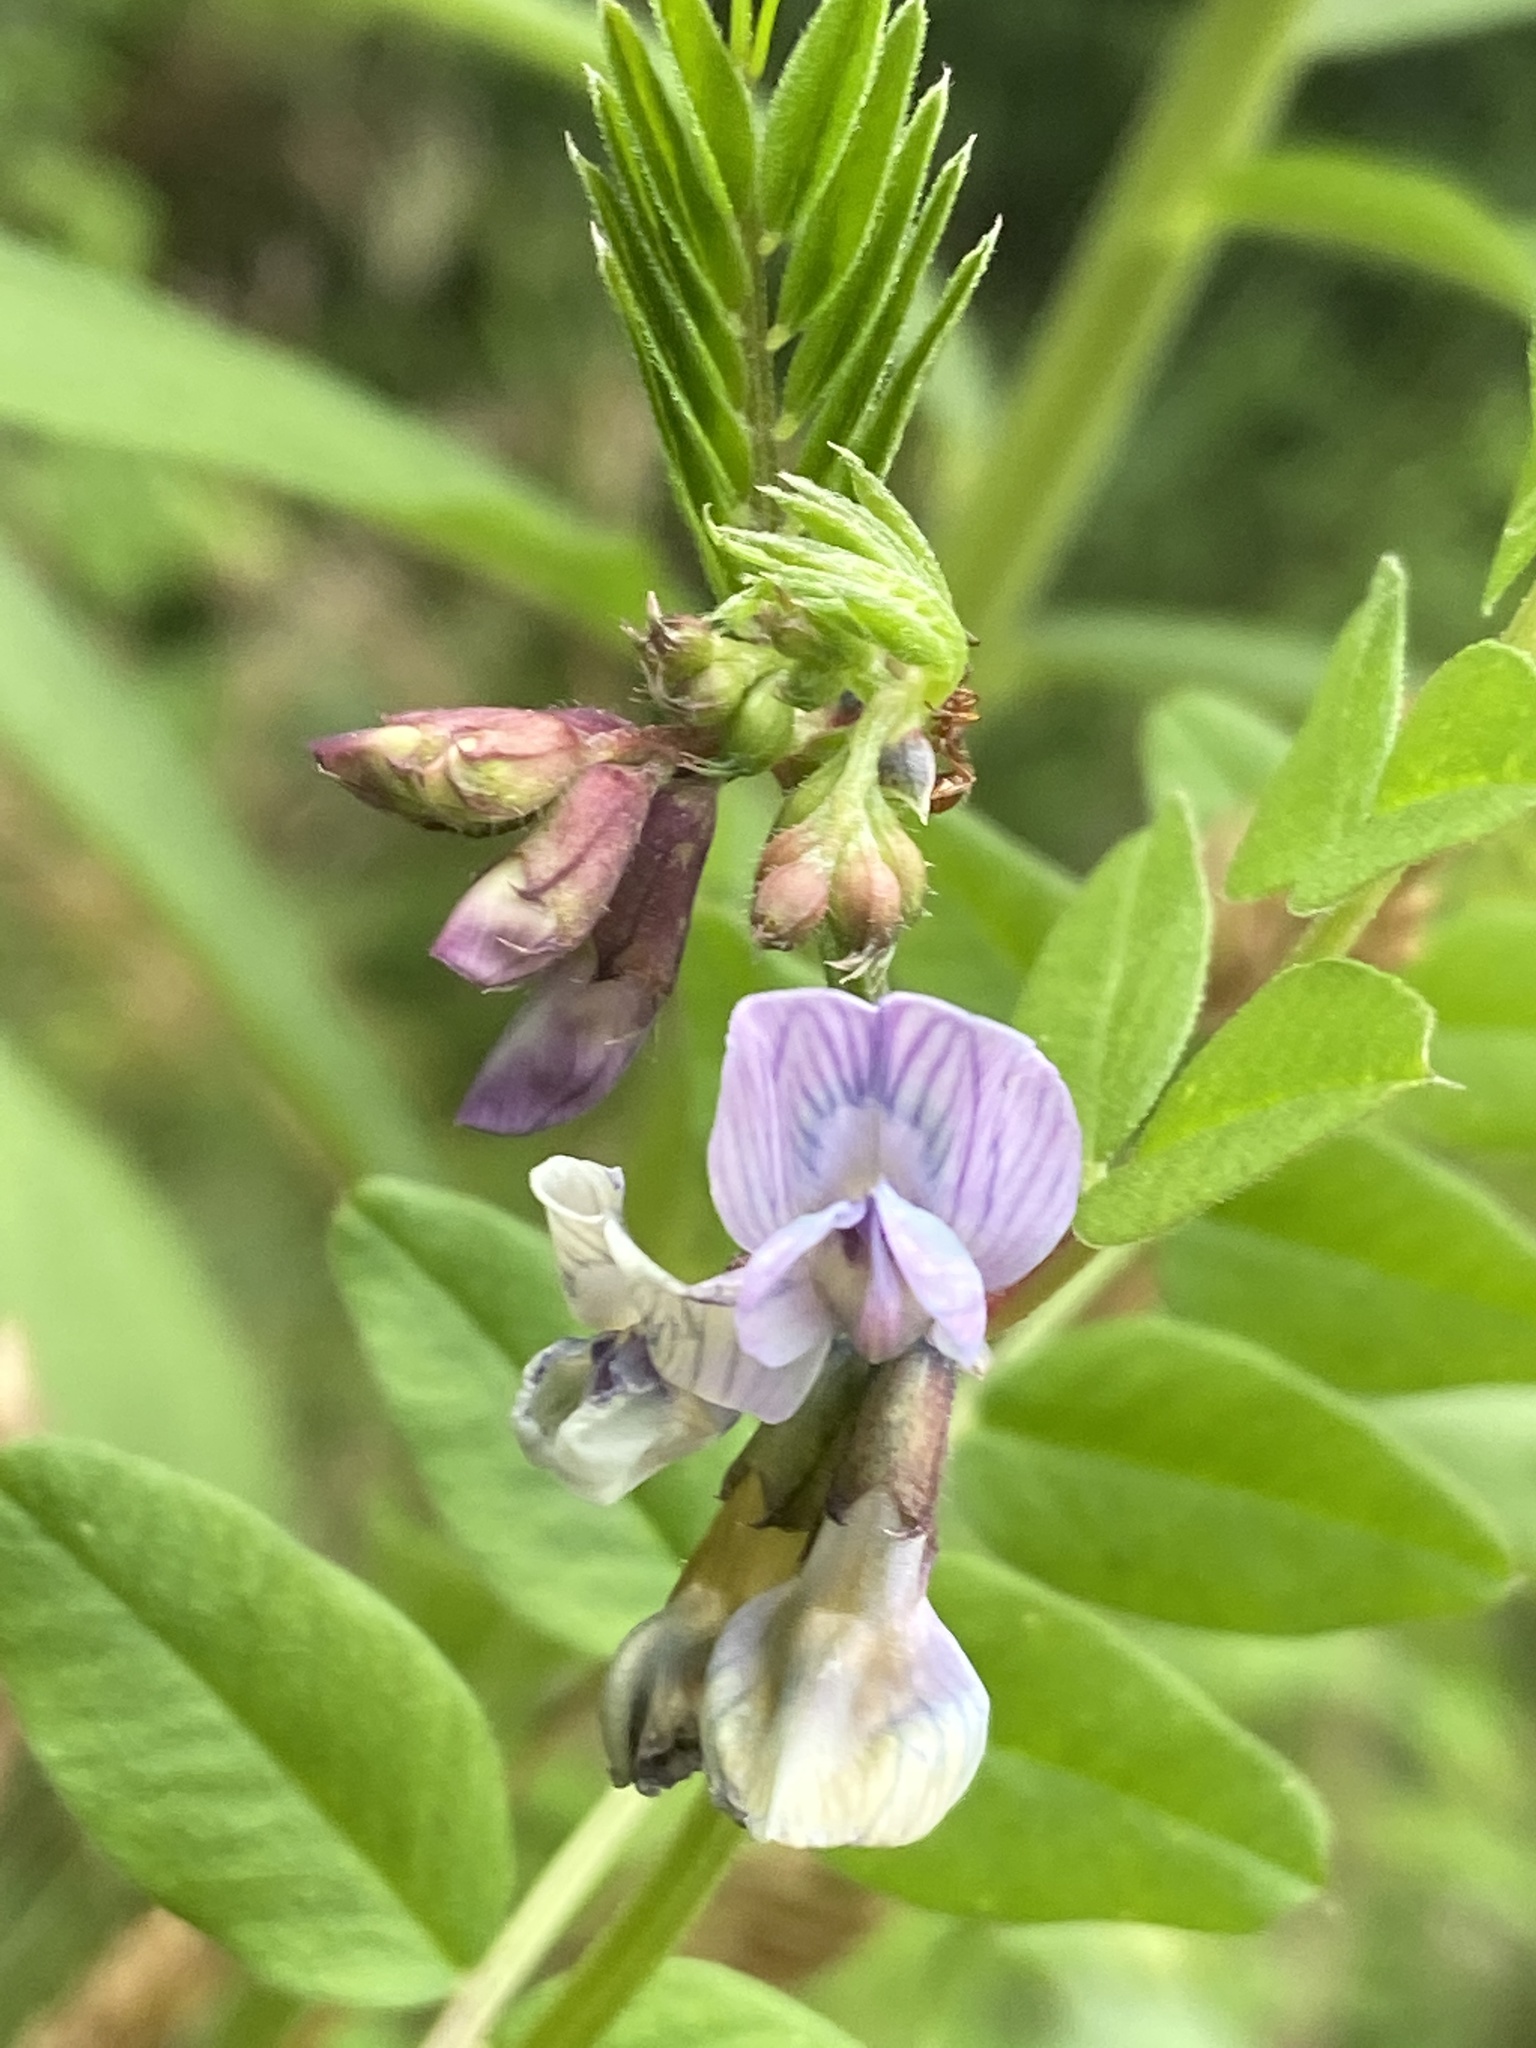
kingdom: Plantae
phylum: Tracheophyta
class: Magnoliopsida
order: Fabales
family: Fabaceae
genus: Vicia
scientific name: Vicia sepium
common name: Bush vetch
